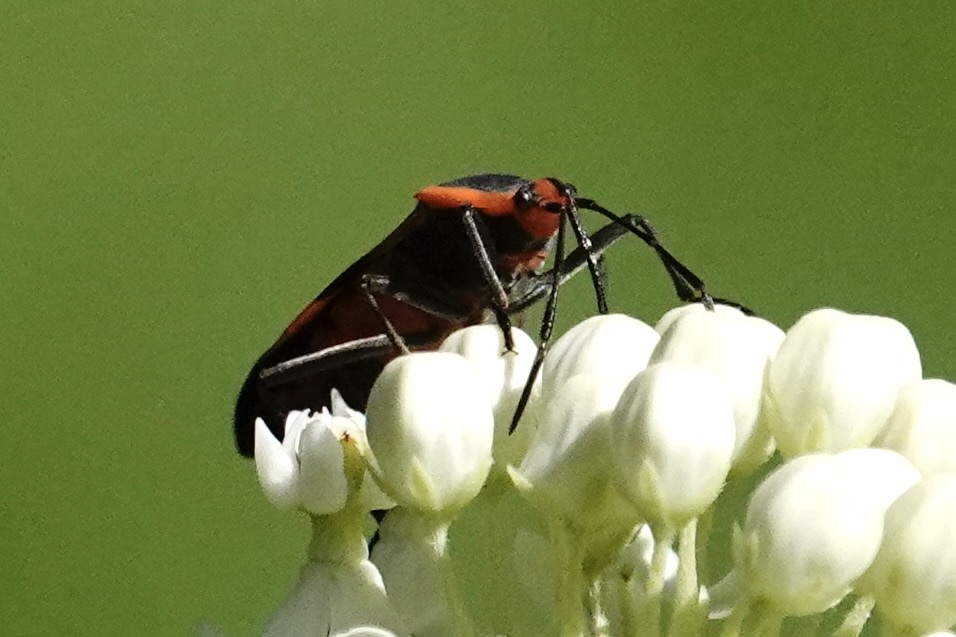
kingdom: Animalia
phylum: Arthropoda
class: Insecta
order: Hemiptera
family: Lygaeidae
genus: Oncopeltus
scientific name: Oncopeltus fasciatus
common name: Large milkweed bug
